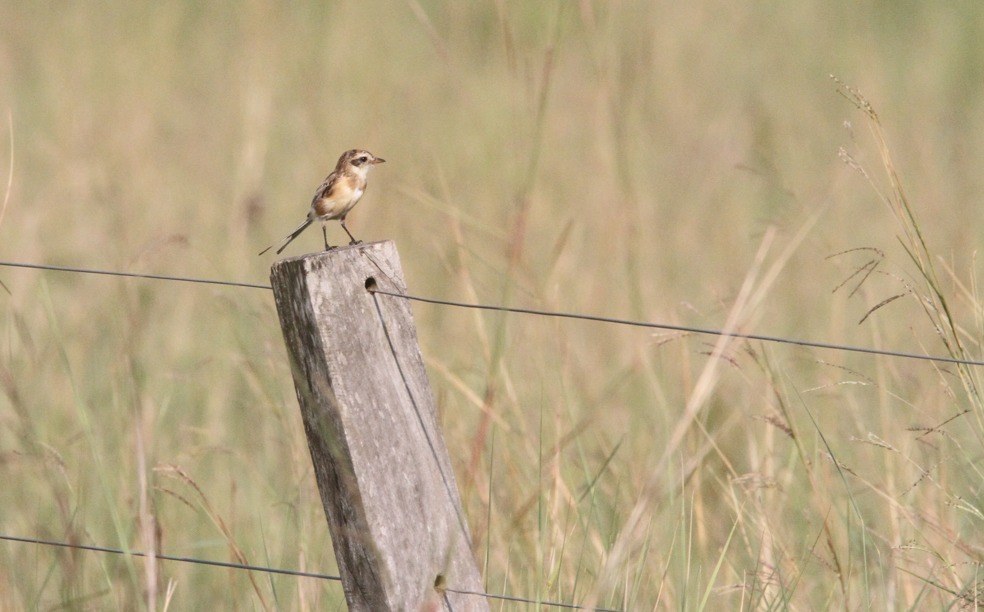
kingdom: Animalia
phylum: Chordata
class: Aves
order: Passeriformes
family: Tyrannidae
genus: Alectrurus
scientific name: Alectrurus risora
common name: Strange-tailed tyrant
